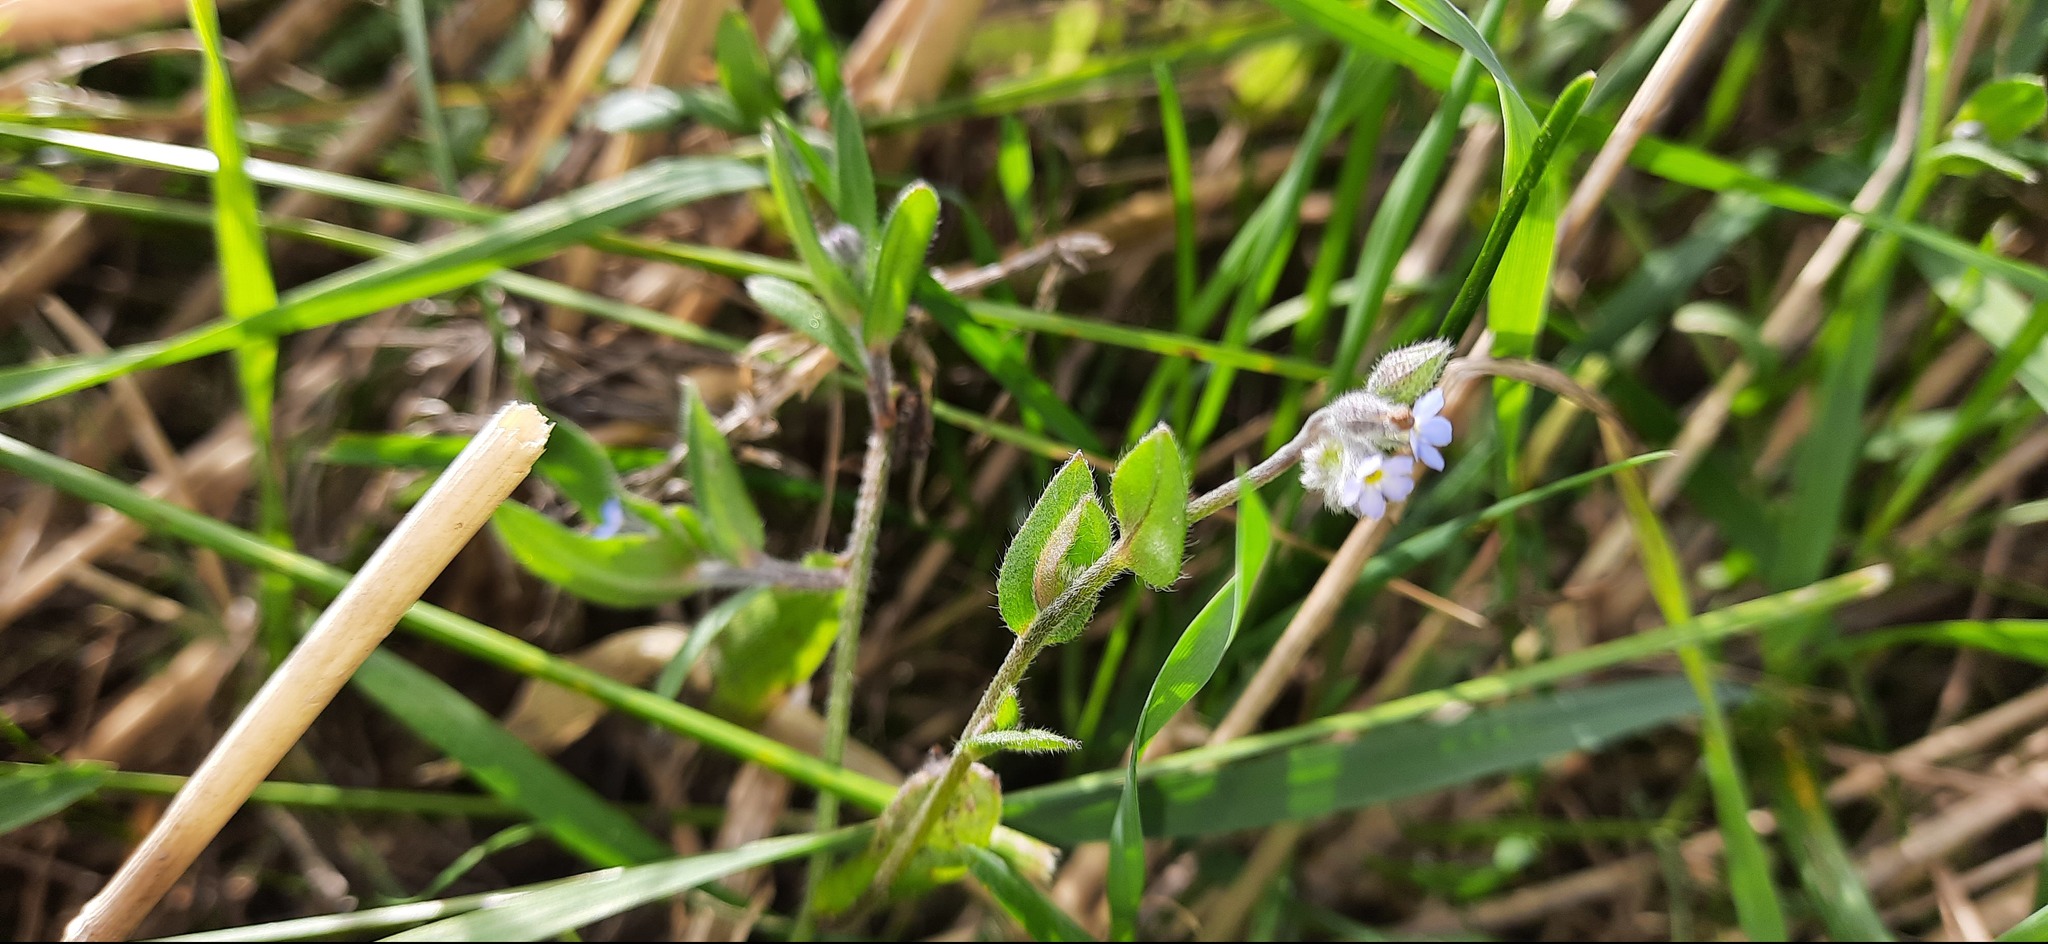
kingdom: Plantae
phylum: Tracheophyta
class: Magnoliopsida
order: Boraginales
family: Boraginaceae
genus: Myosotis
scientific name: Myosotis arvensis
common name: Field forget-me-not
